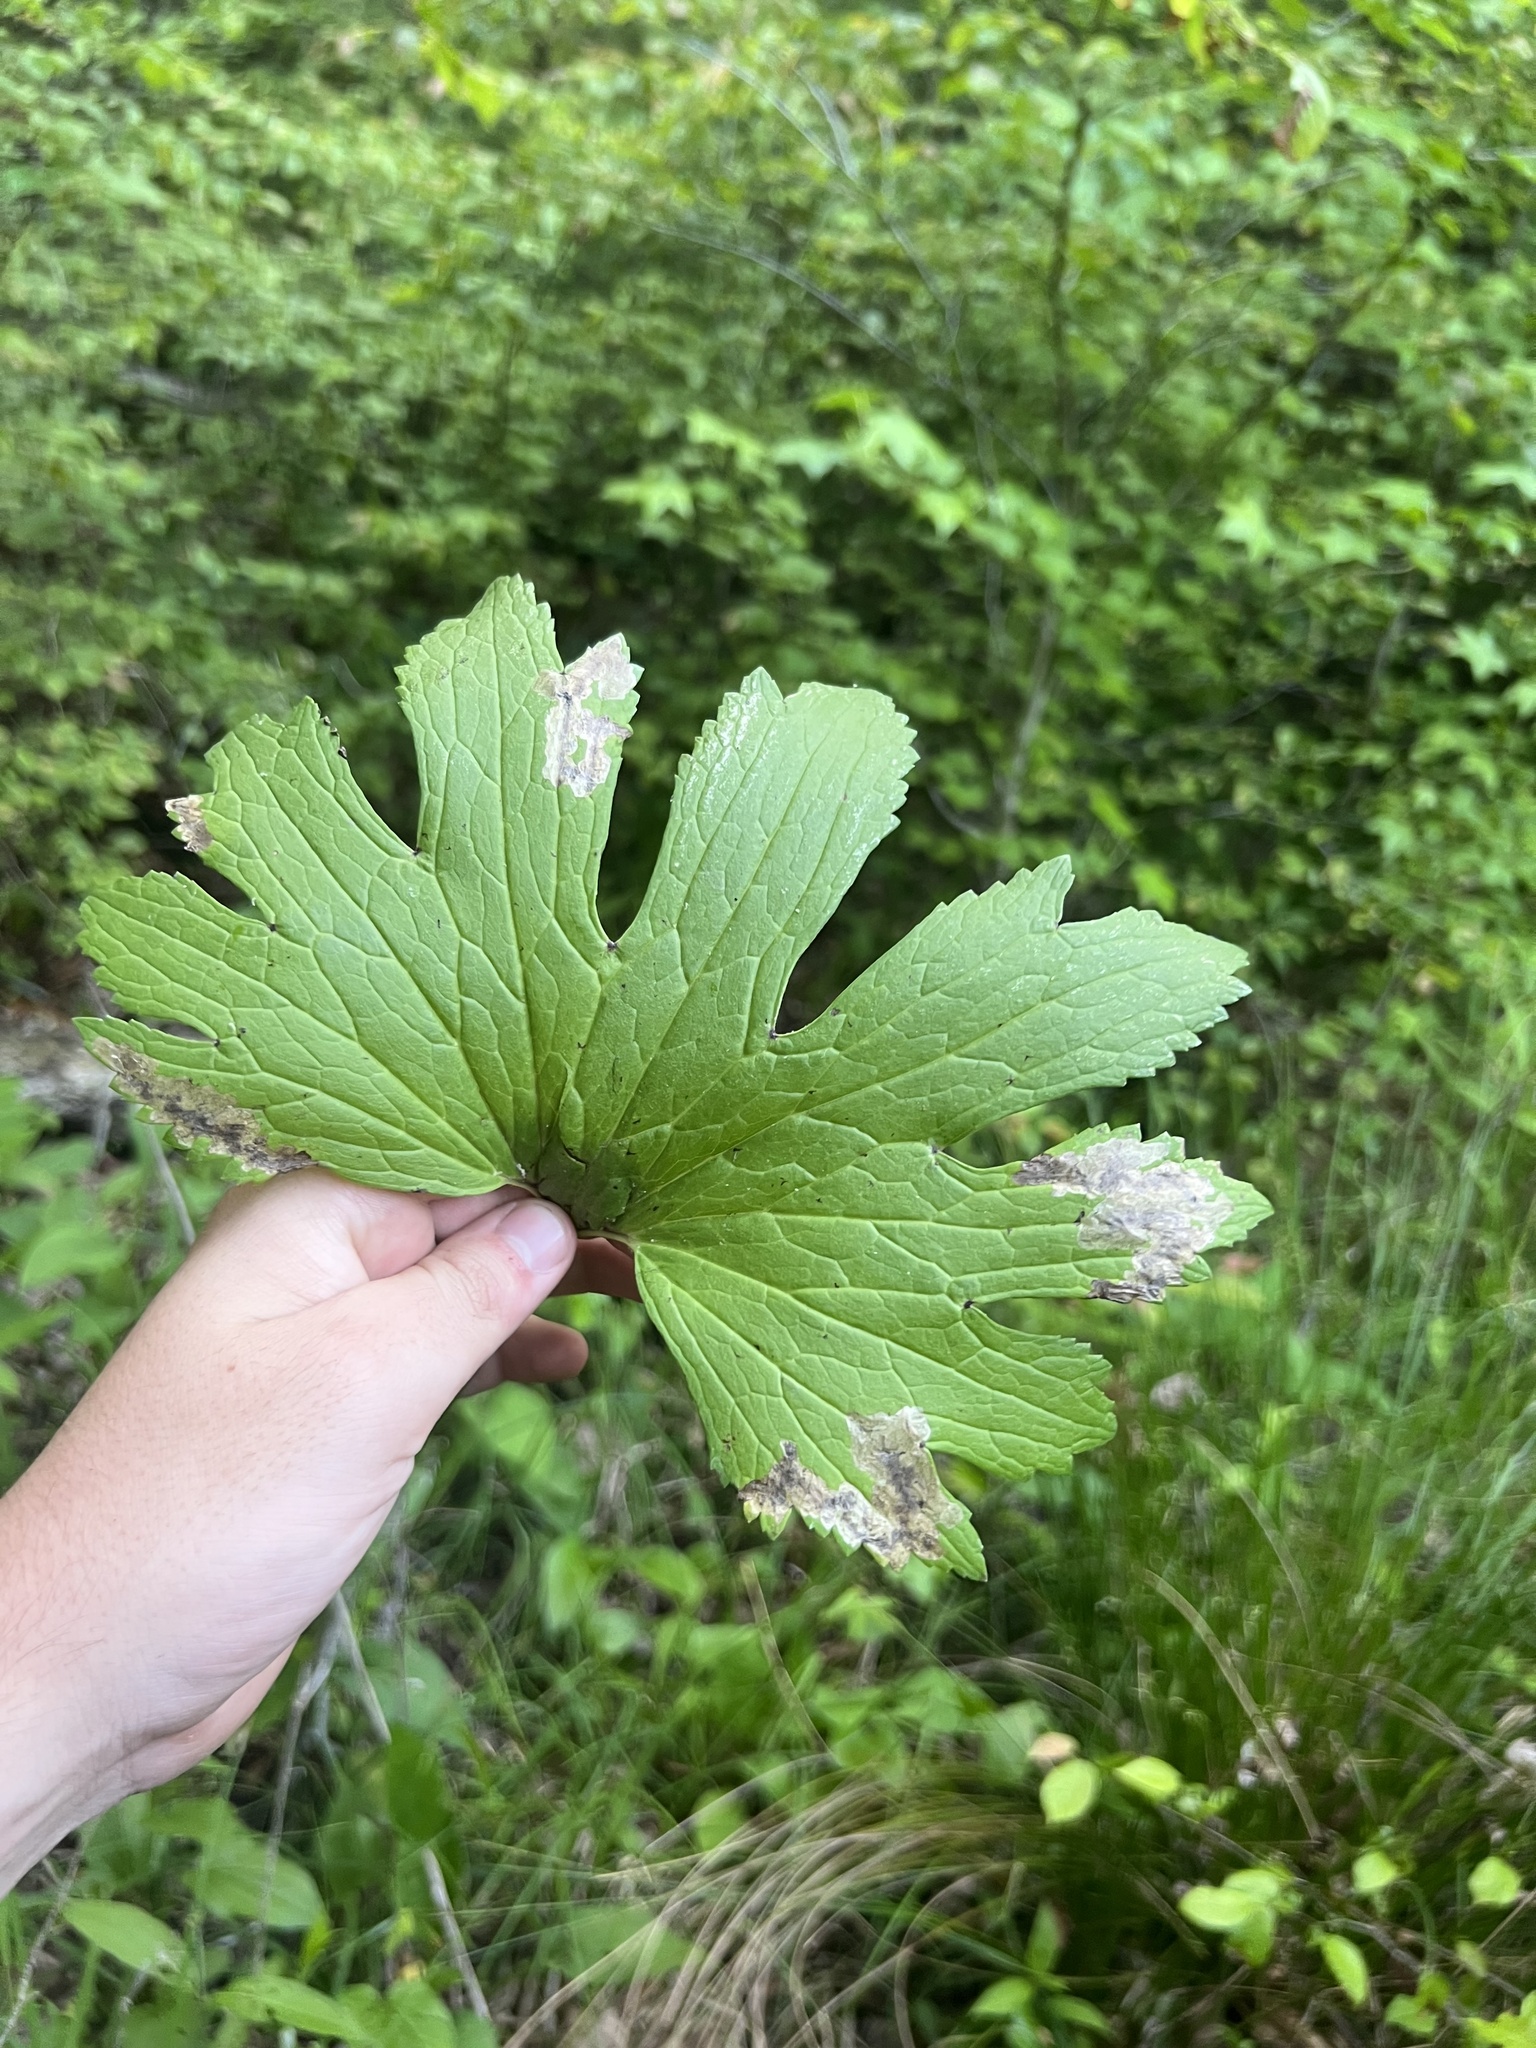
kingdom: Plantae
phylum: Tracheophyta
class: Magnoliopsida
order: Ranunculales
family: Ranunculaceae
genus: Trautvetteria
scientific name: Trautvetteria carolinensis
